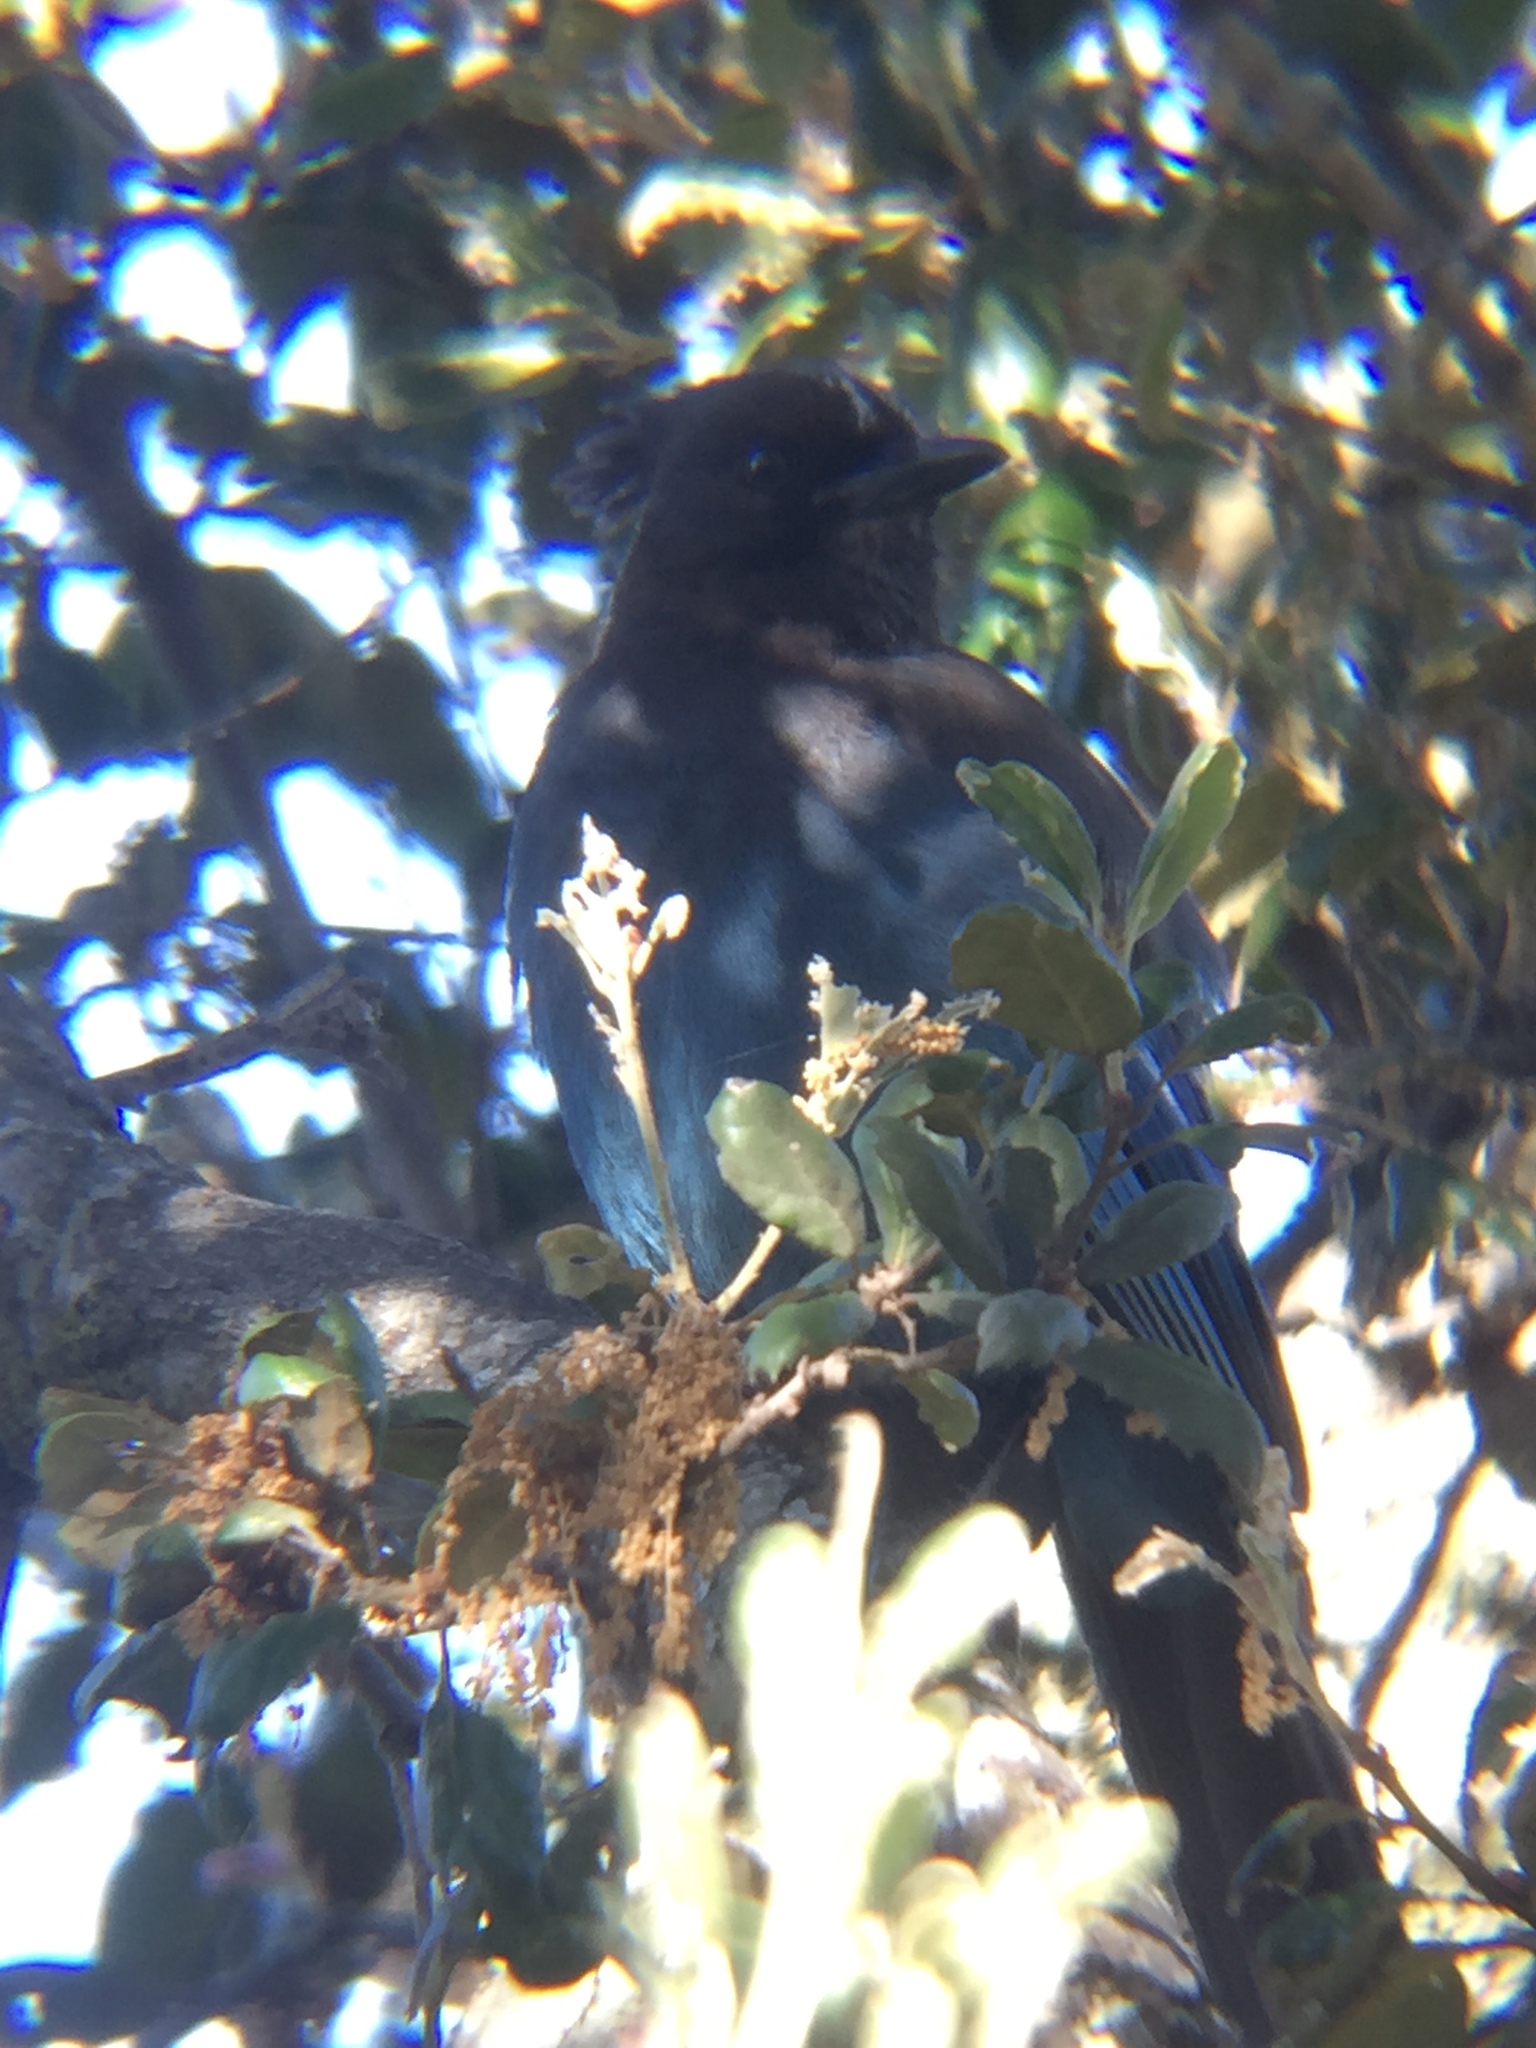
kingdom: Animalia
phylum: Chordata
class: Aves
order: Passeriformes
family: Corvidae
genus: Cyanocitta
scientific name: Cyanocitta stelleri
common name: Steller's jay
